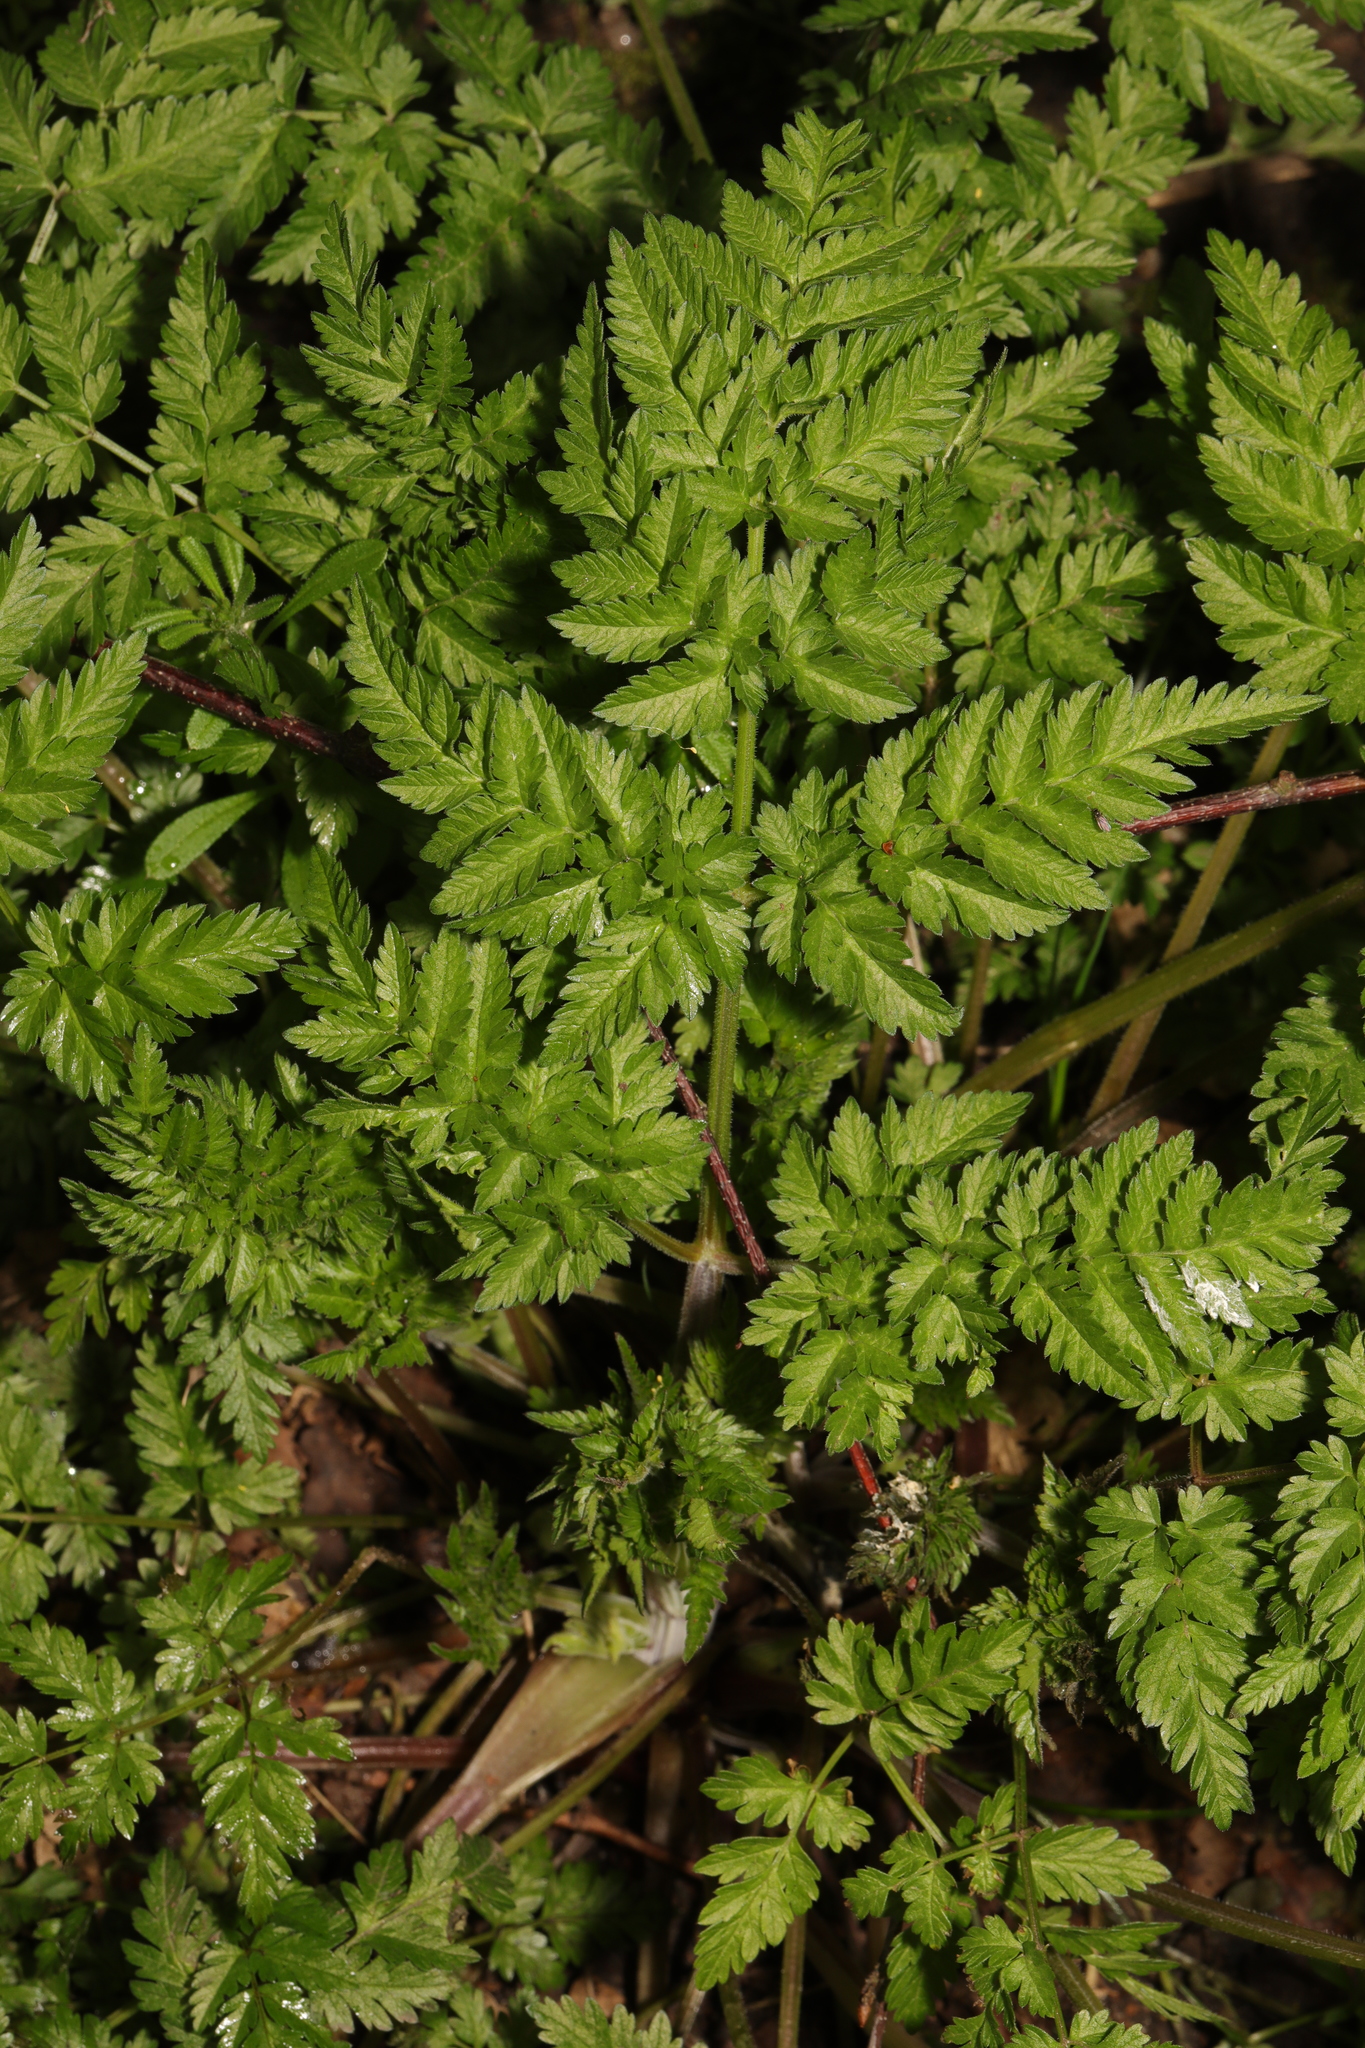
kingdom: Plantae
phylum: Tracheophyta
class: Magnoliopsida
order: Apiales
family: Apiaceae
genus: Anthriscus
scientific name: Anthriscus sylvestris
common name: Cow parsley
